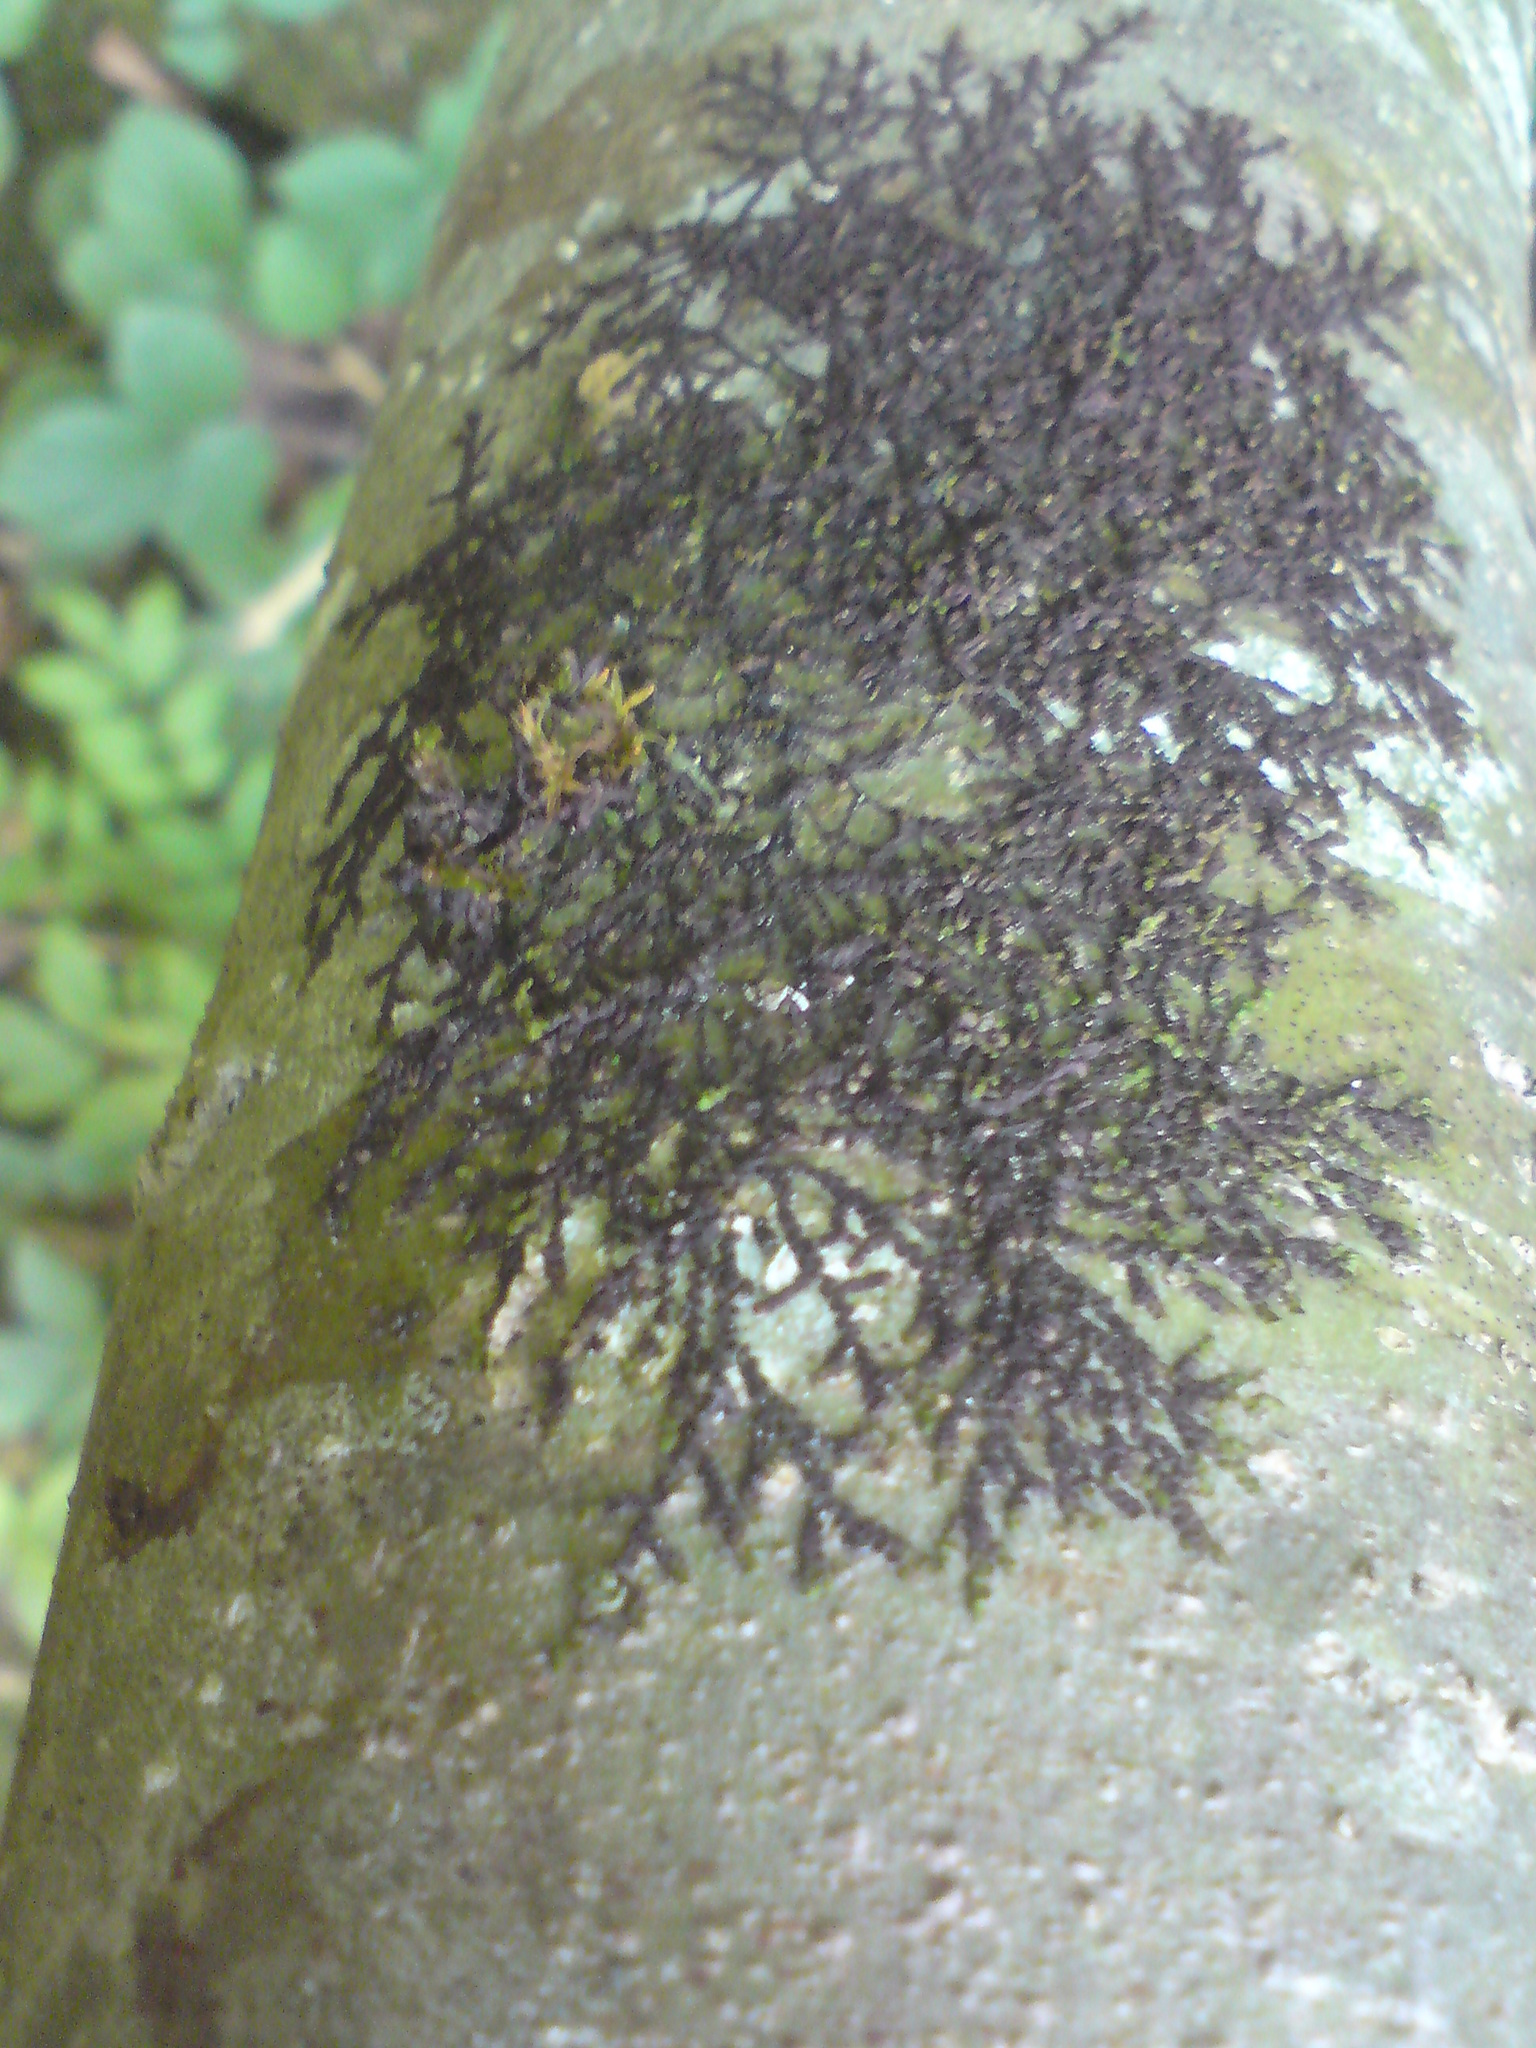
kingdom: Plantae
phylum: Marchantiophyta
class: Jungermanniopsida
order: Porellales
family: Frullaniaceae
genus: Frullania
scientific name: Frullania dilatata
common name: Dilated scalewort
